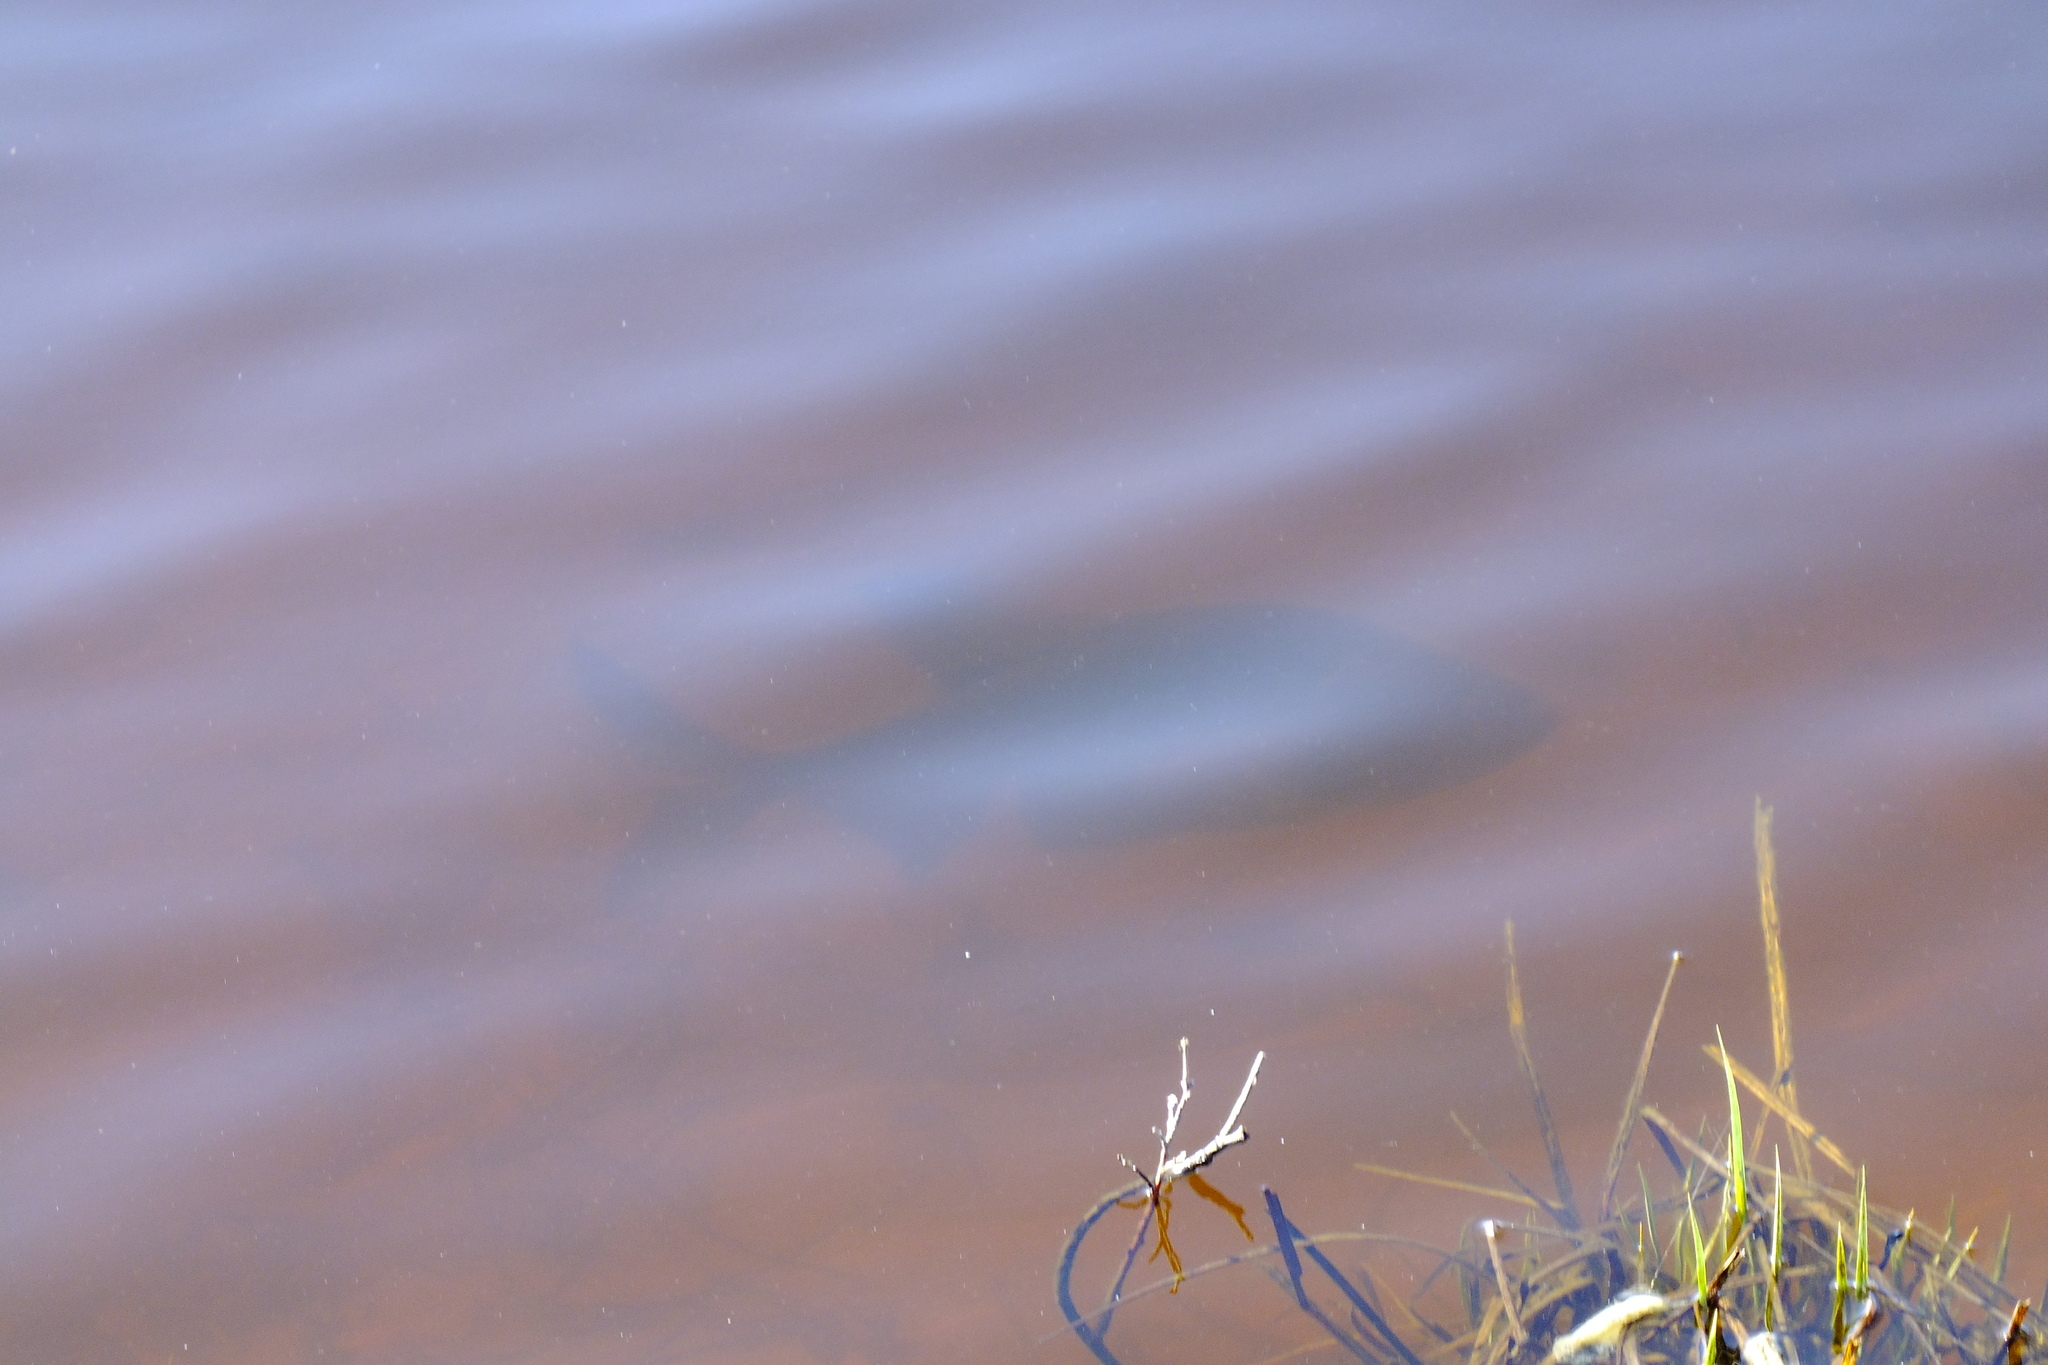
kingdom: Animalia
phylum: Chordata
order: Cypriniformes
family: Cyprinidae
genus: Abramis
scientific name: Abramis brama
